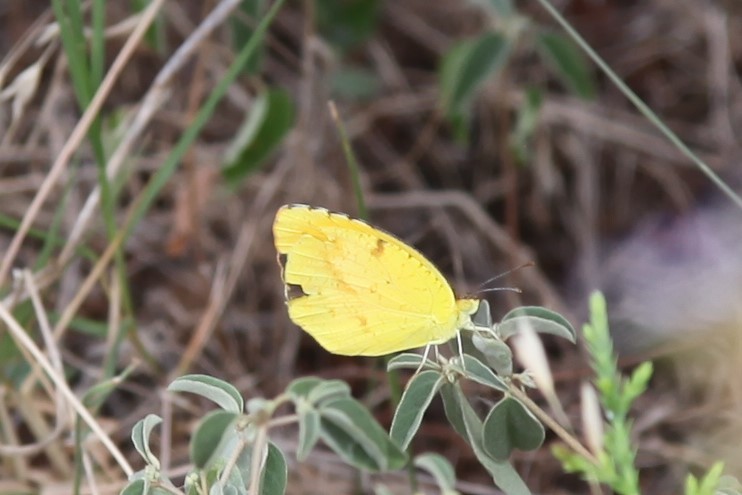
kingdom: Animalia
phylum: Arthropoda
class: Insecta
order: Lepidoptera
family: Pieridae
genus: Abaeis
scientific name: Abaeis nicippe
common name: Sleepy orange
